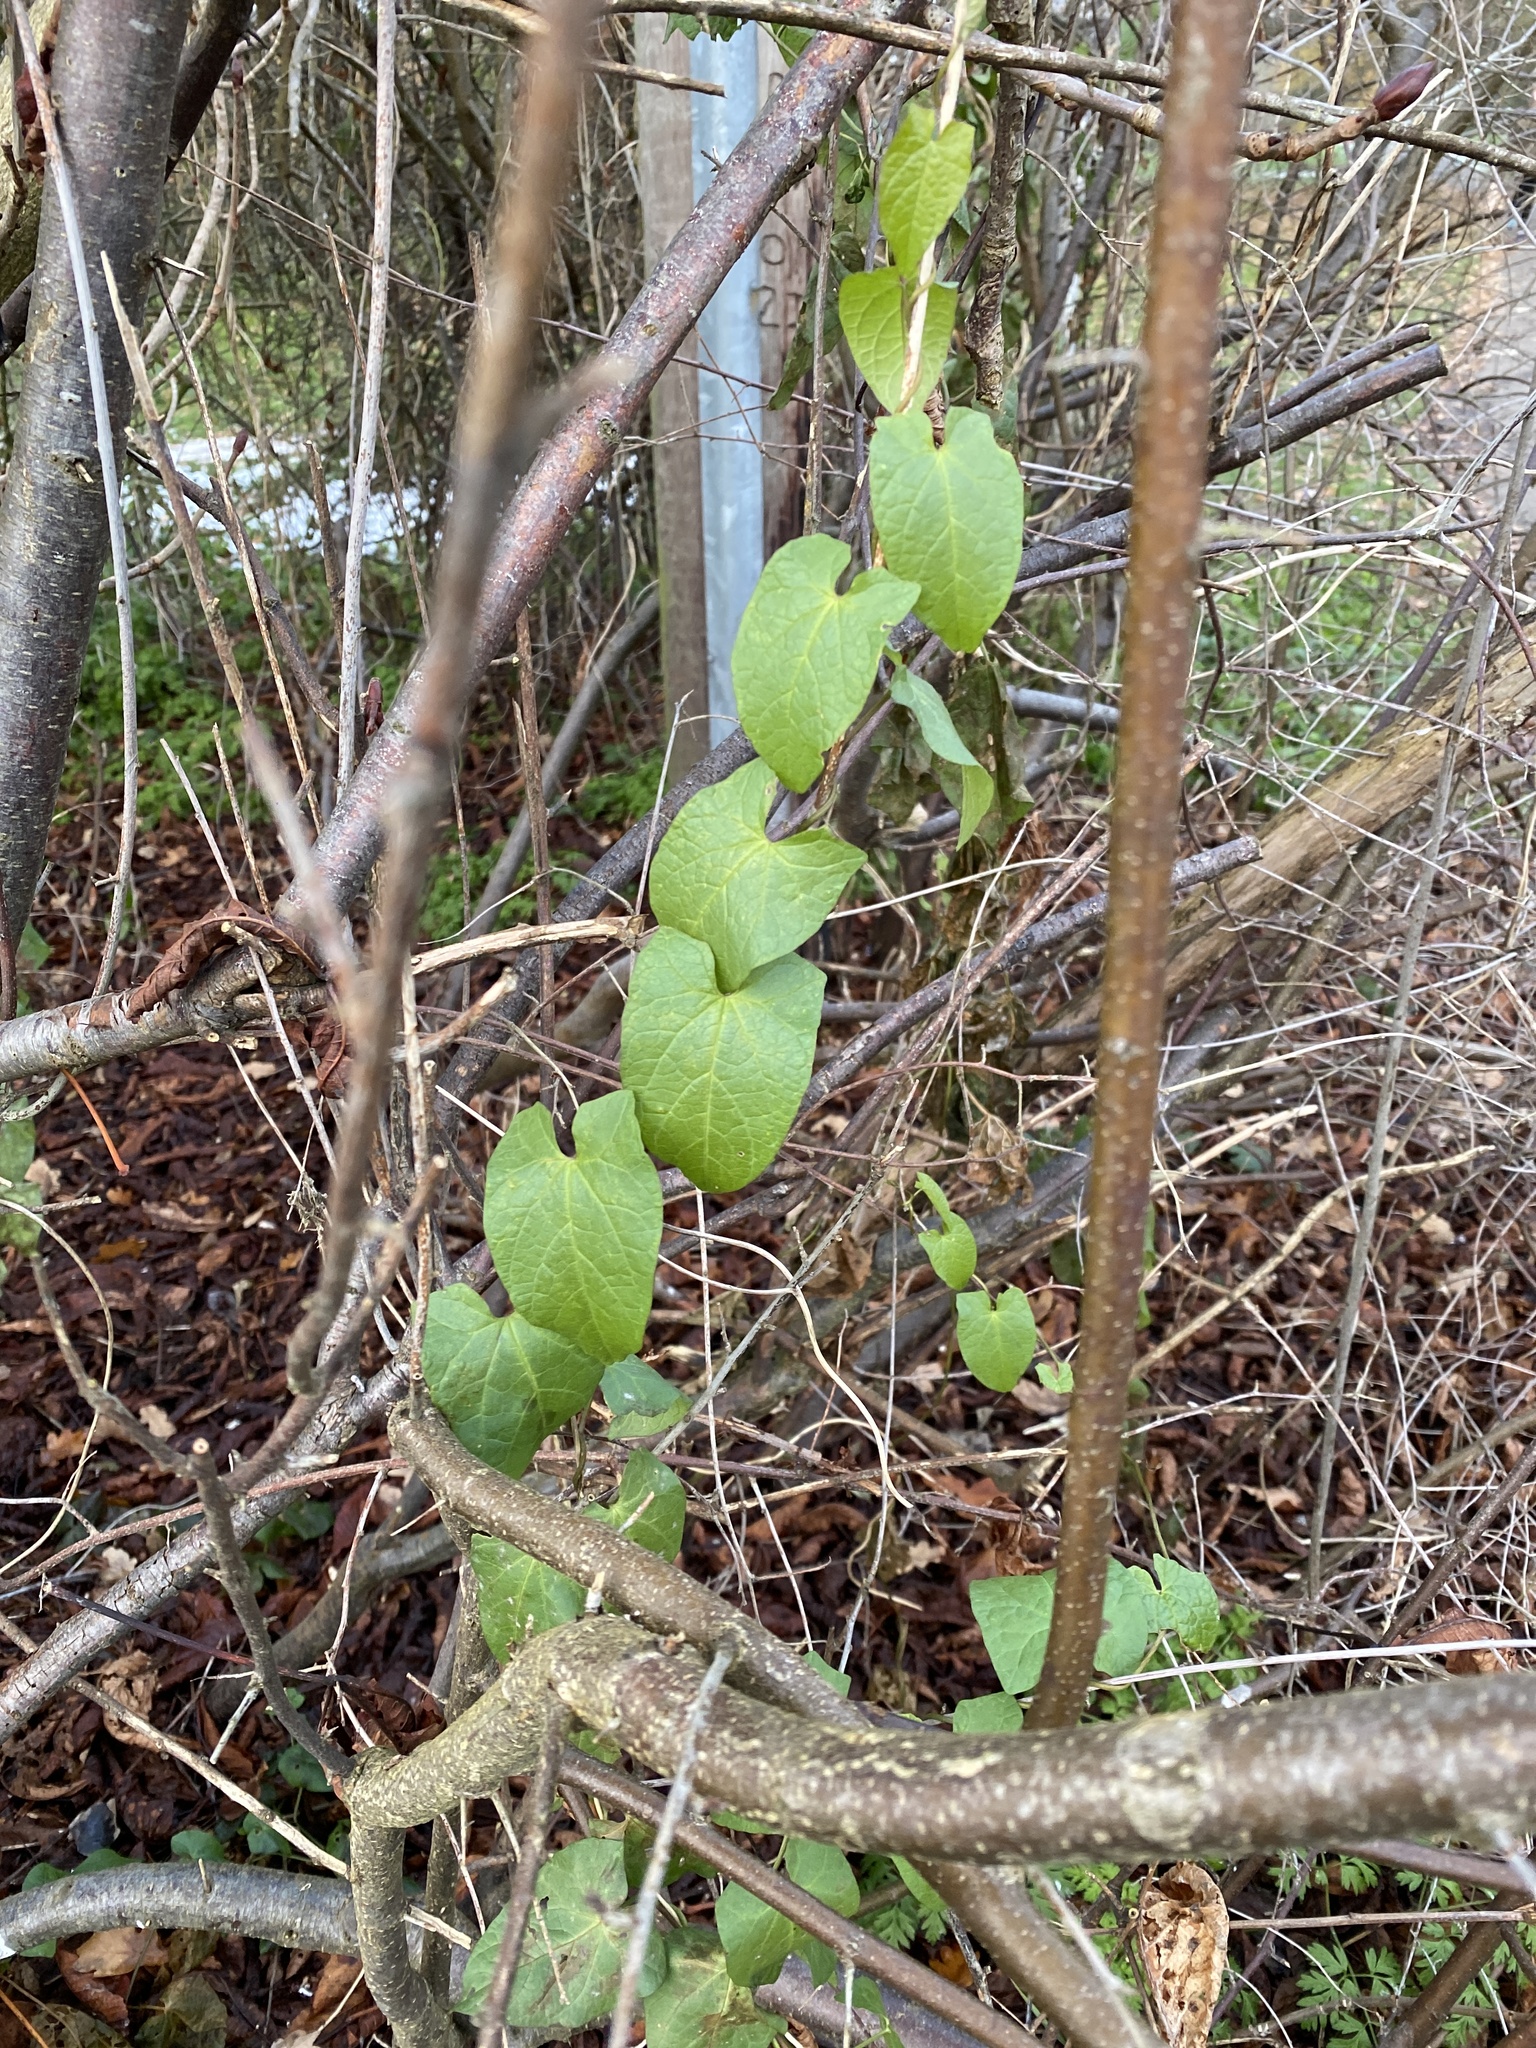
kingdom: Plantae
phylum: Tracheophyta
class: Magnoliopsida
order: Solanales
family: Convolvulaceae
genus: Calystegia
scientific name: Calystegia
